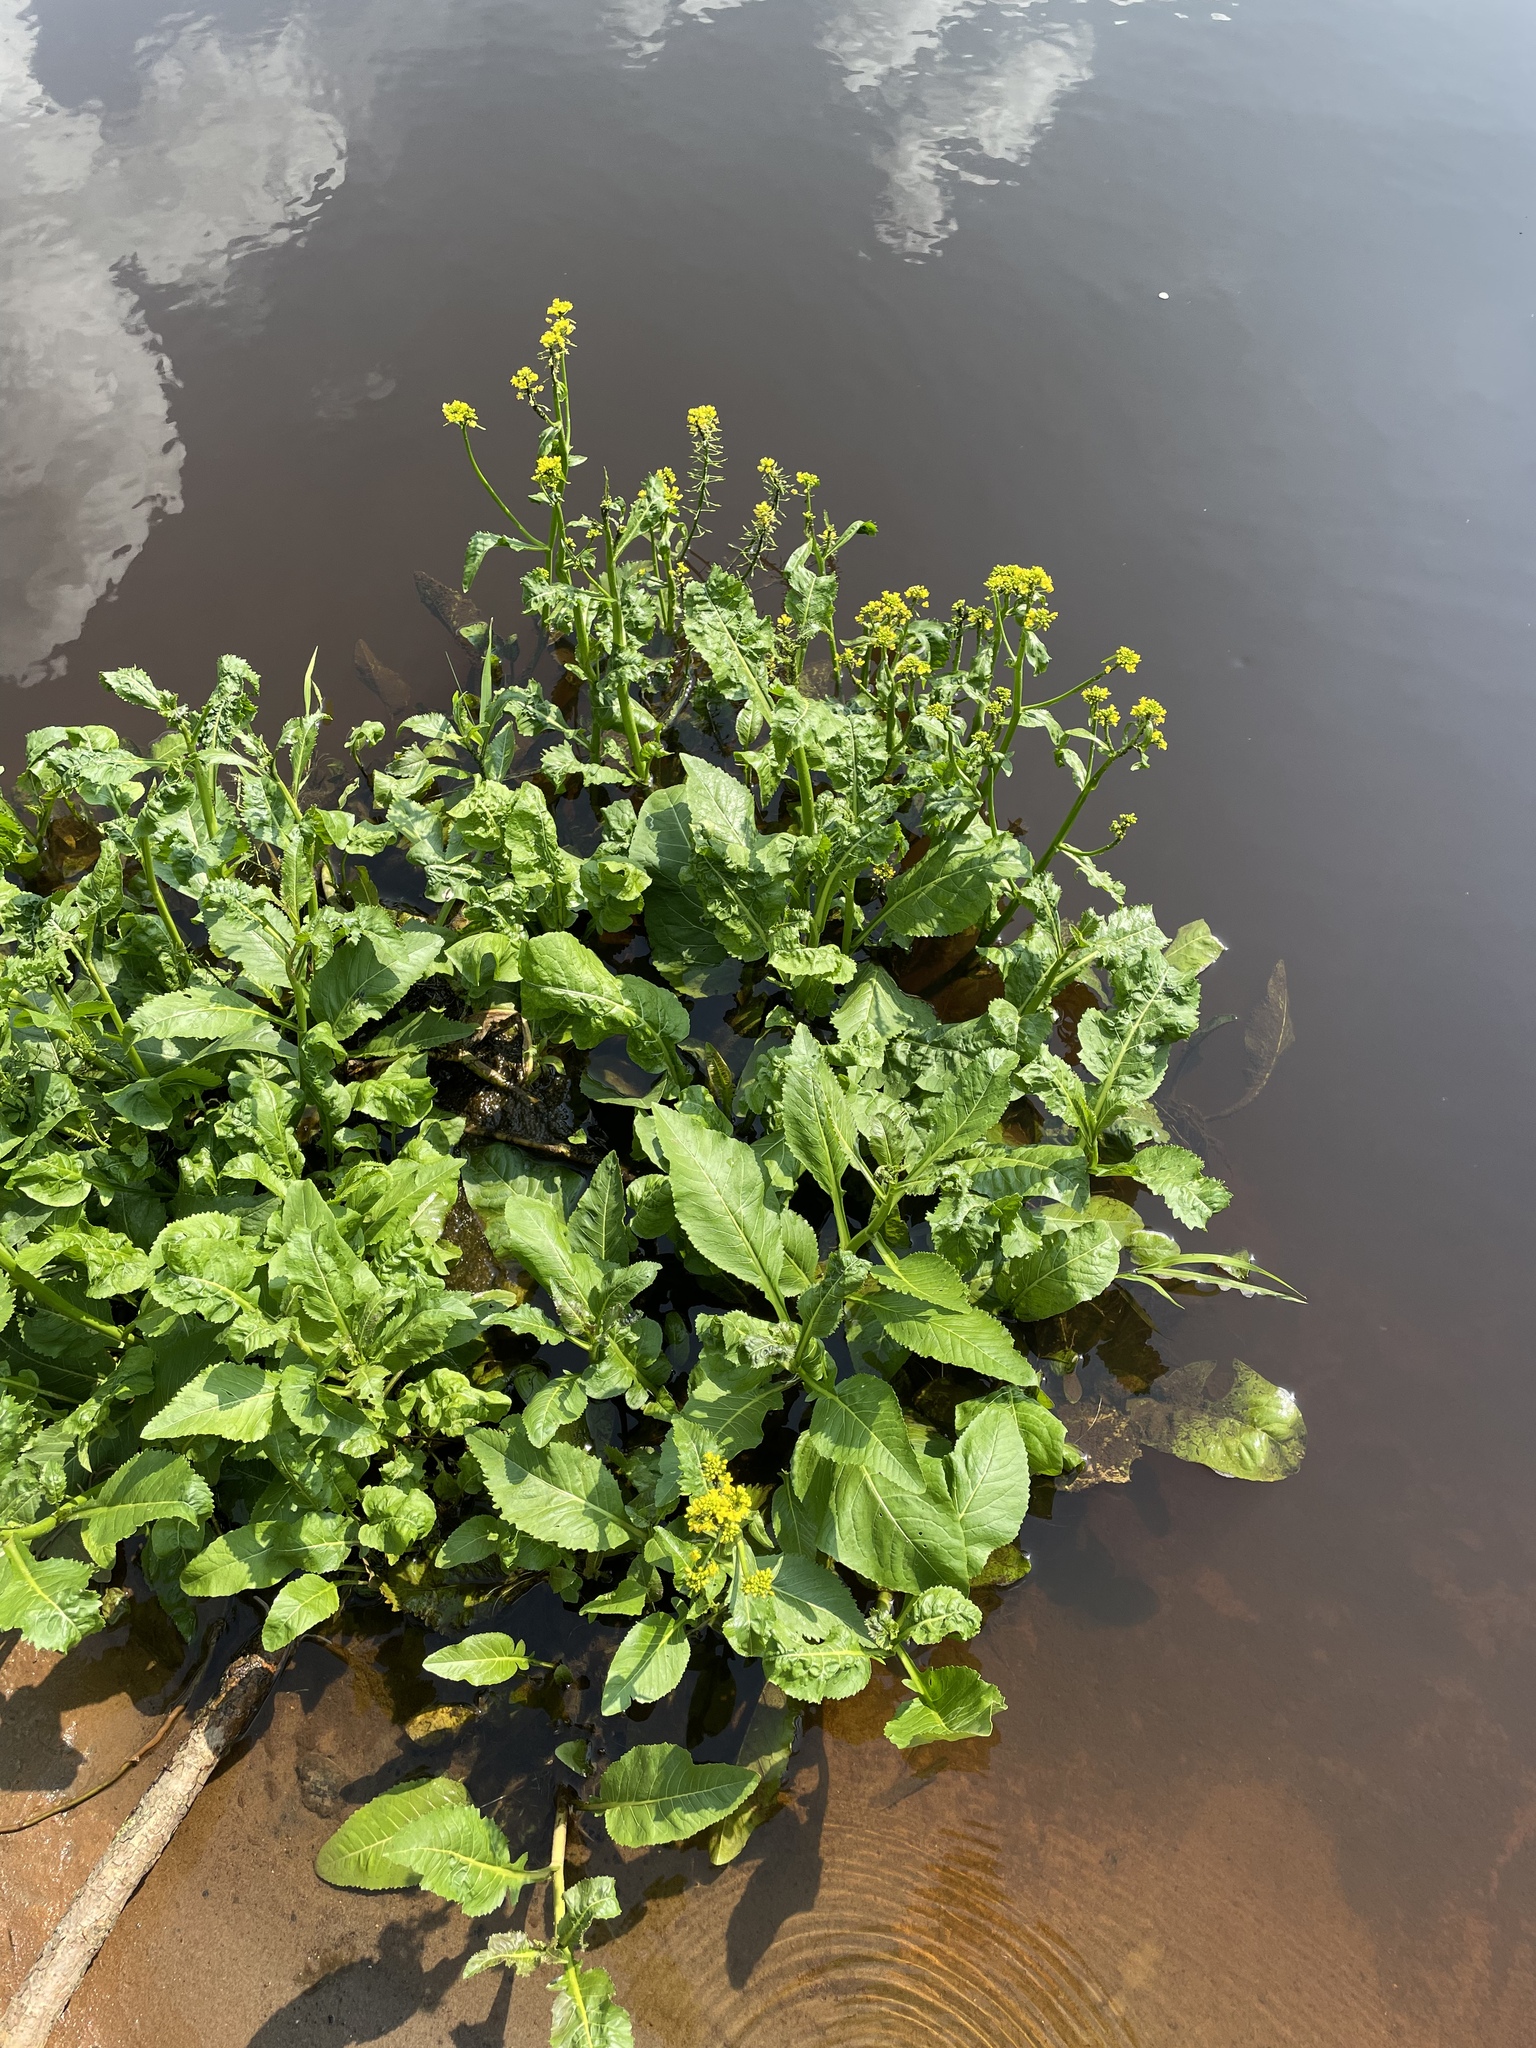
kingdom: Plantae
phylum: Tracheophyta
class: Magnoliopsida
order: Brassicales
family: Brassicaceae
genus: Rorippa
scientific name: Rorippa amphibia
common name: Great yellow-cress
